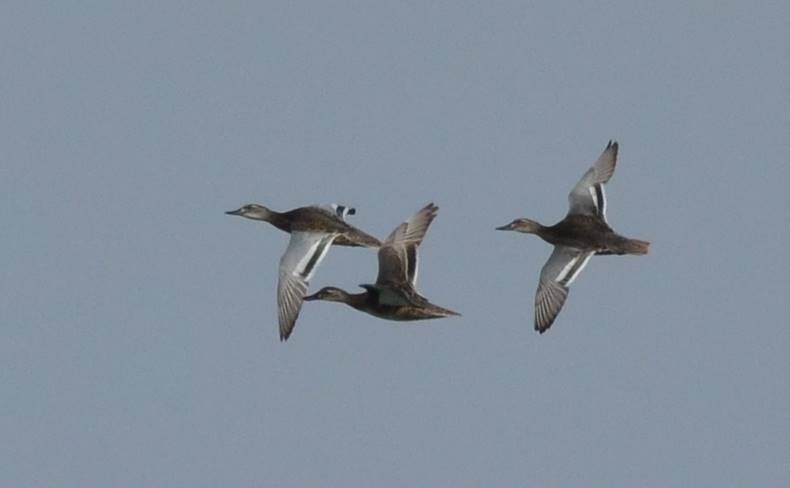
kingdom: Animalia
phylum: Chordata
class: Aves
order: Anseriformes
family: Anatidae
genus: Spatula
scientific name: Spatula querquedula
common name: Garganey
